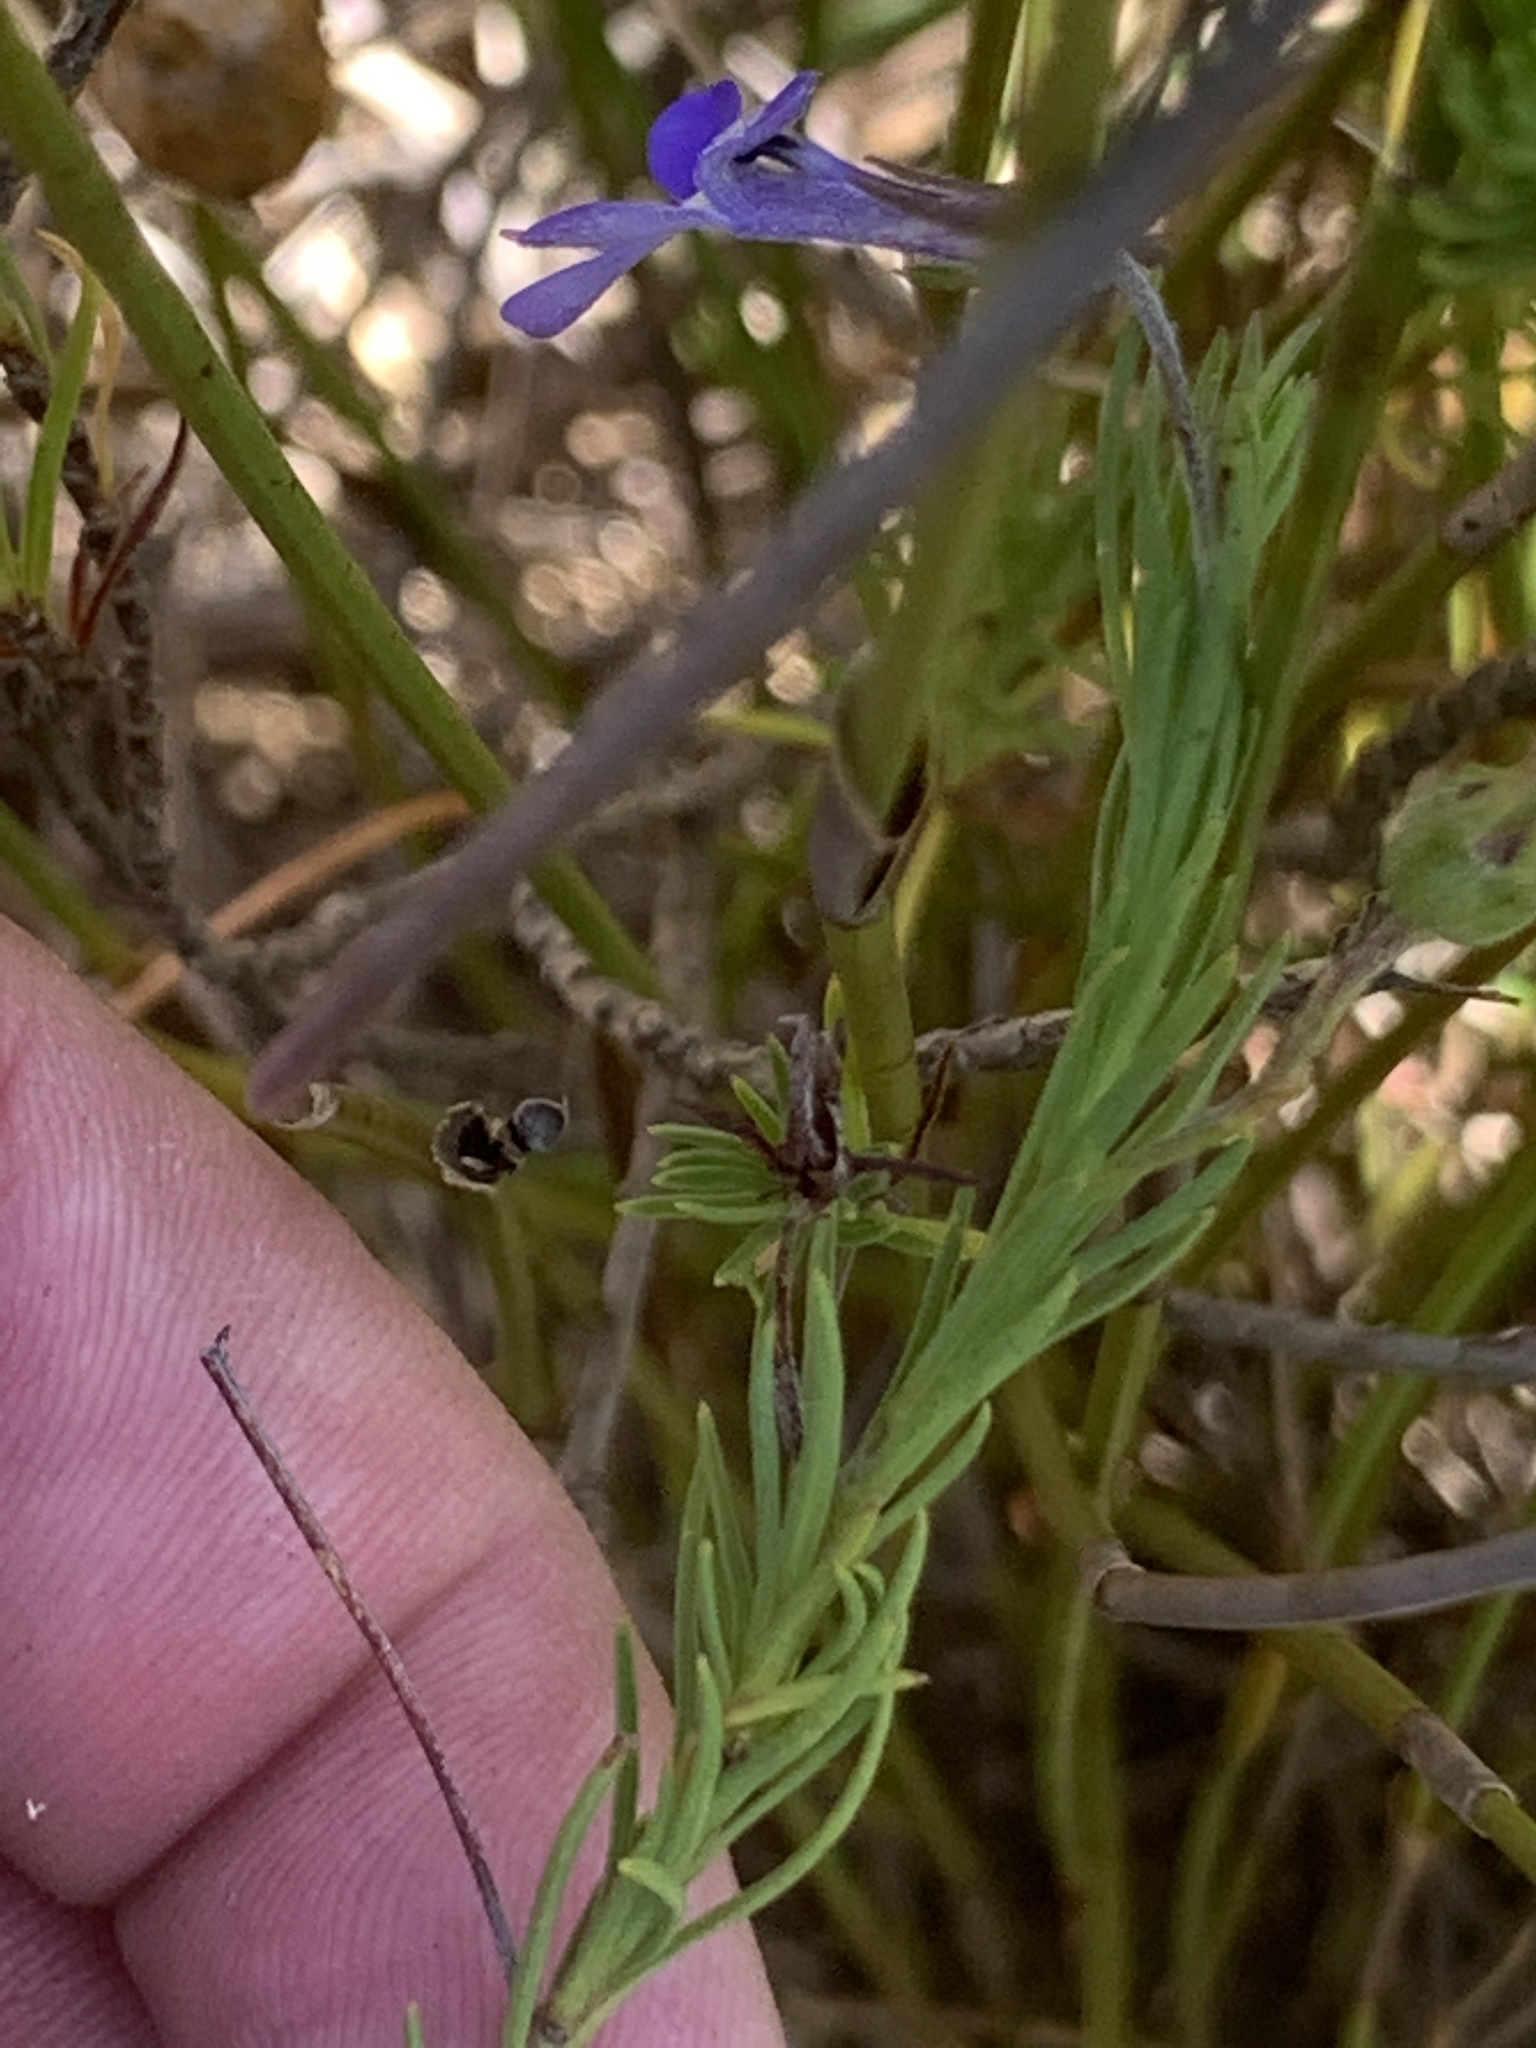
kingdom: Plantae
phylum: Tracheophyta
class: Magnoliopsida
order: Asterales
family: Campanulaceae
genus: Lobelia
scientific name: Lobelia pinifolia
